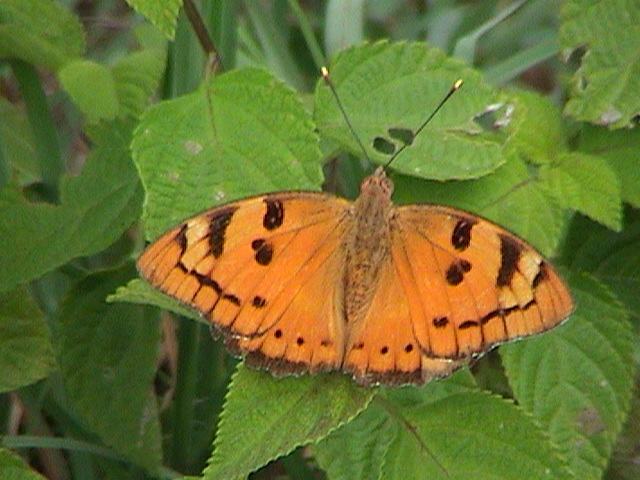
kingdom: Animalia
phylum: Arthropoda
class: Insecta
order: Lepidoptera
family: Nymphalidae
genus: Euthalia
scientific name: Euthalia nais
